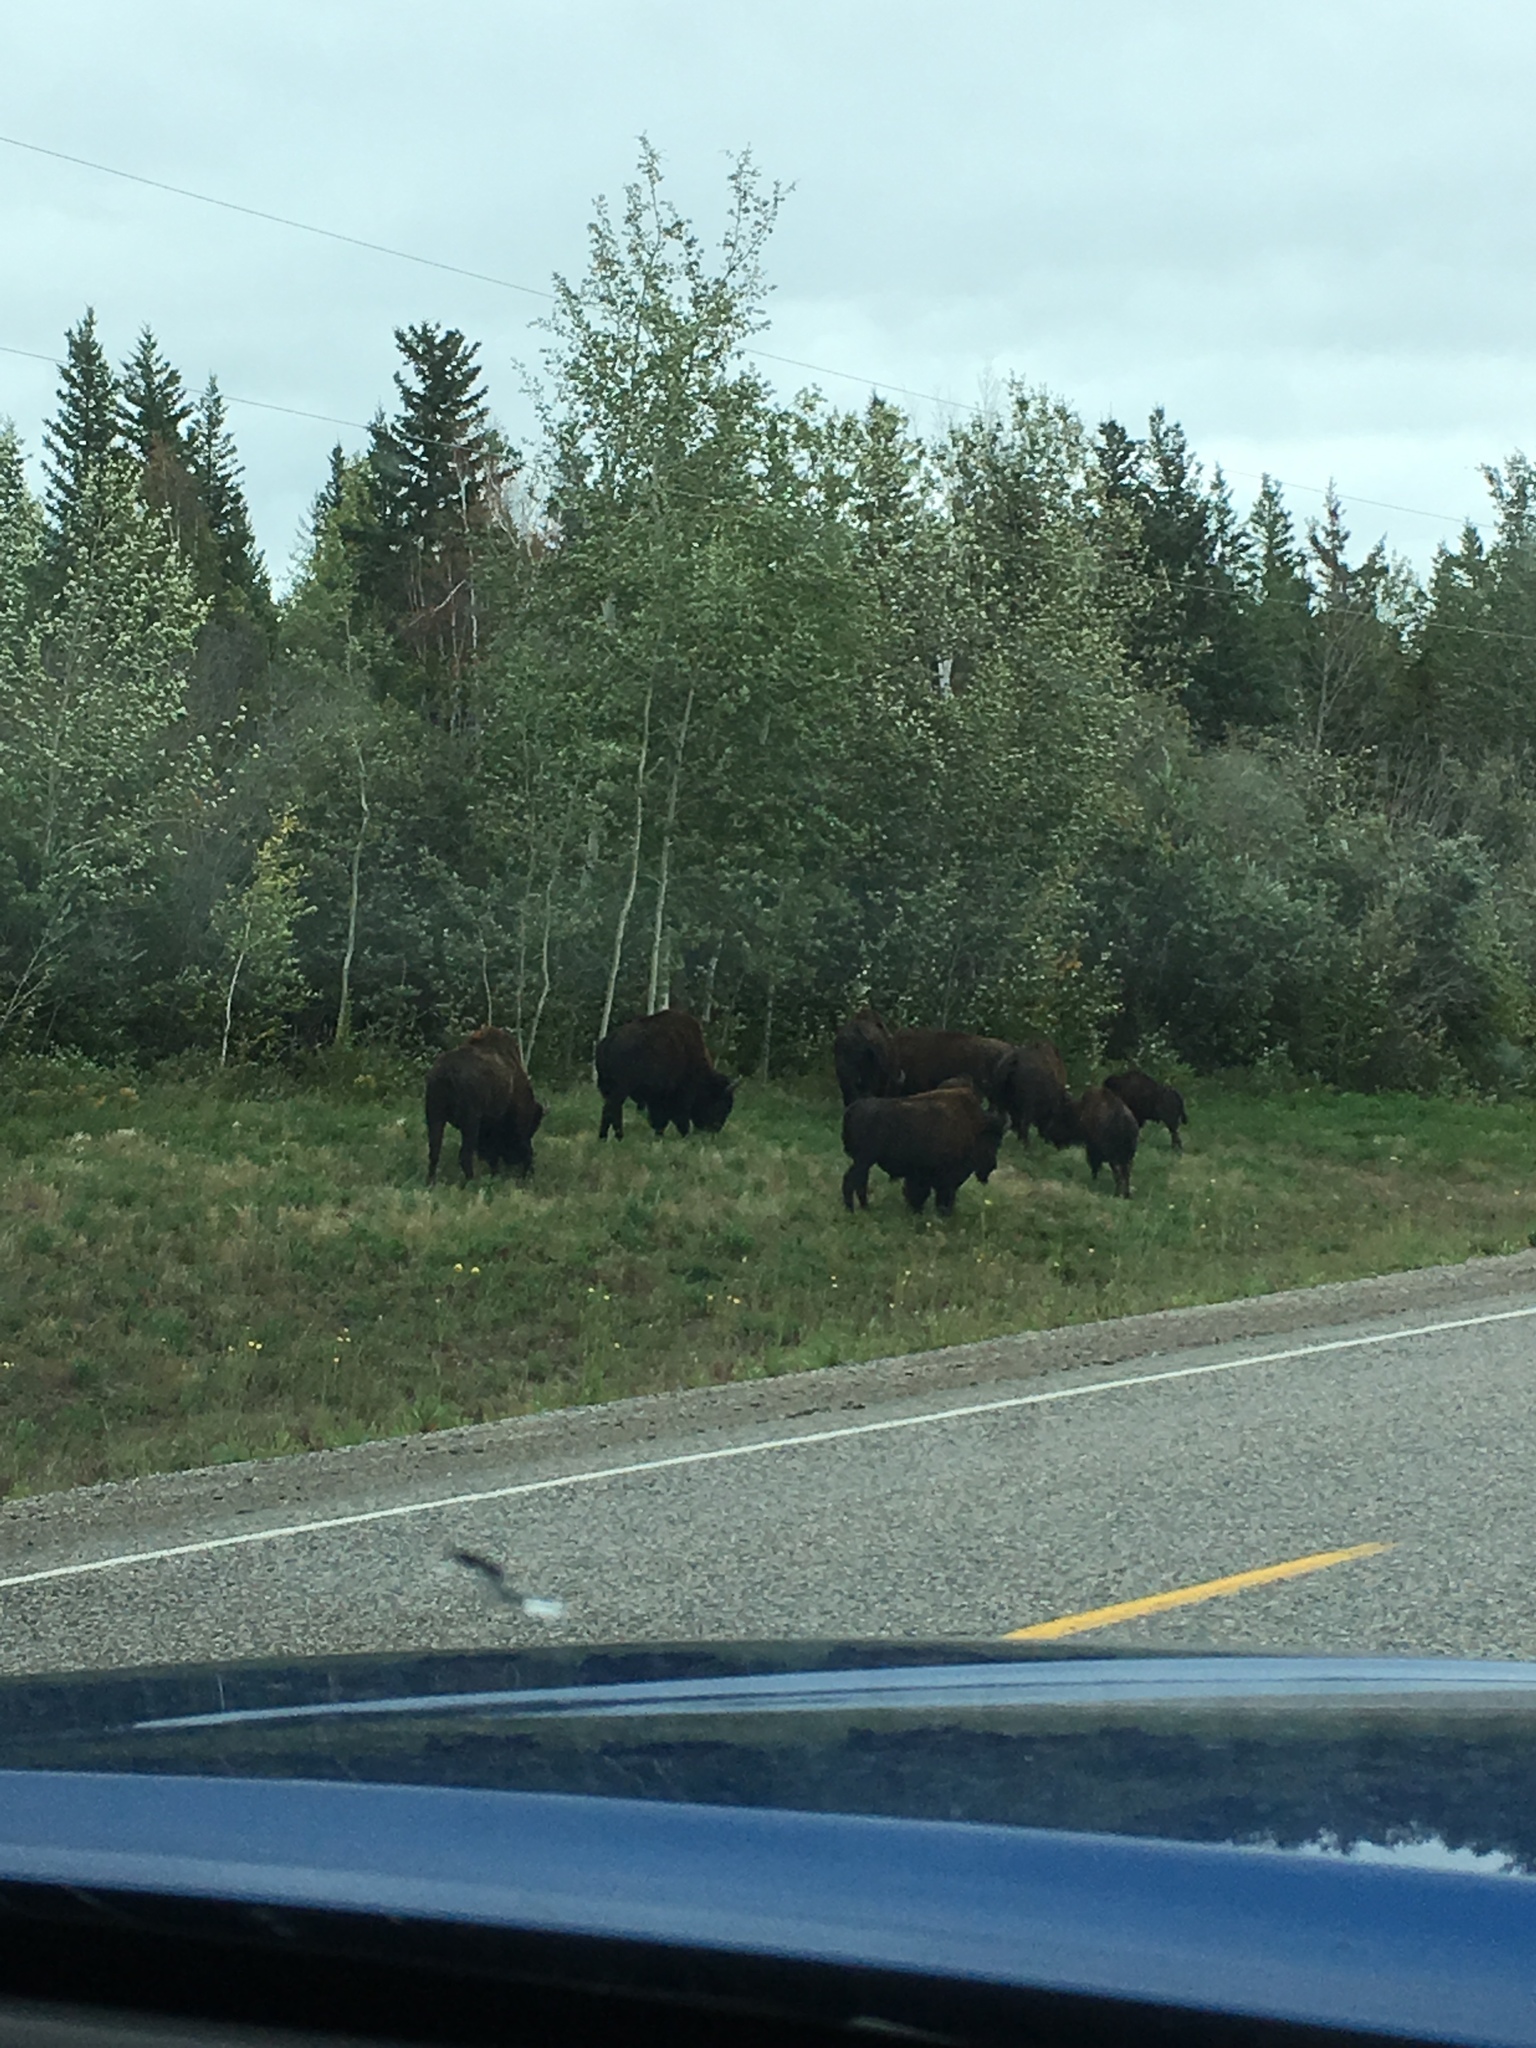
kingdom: Animalia
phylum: Chordata
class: Mammalia
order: Artiodactyla
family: Bovidae
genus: Bison
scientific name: Bison bison
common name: American bison
